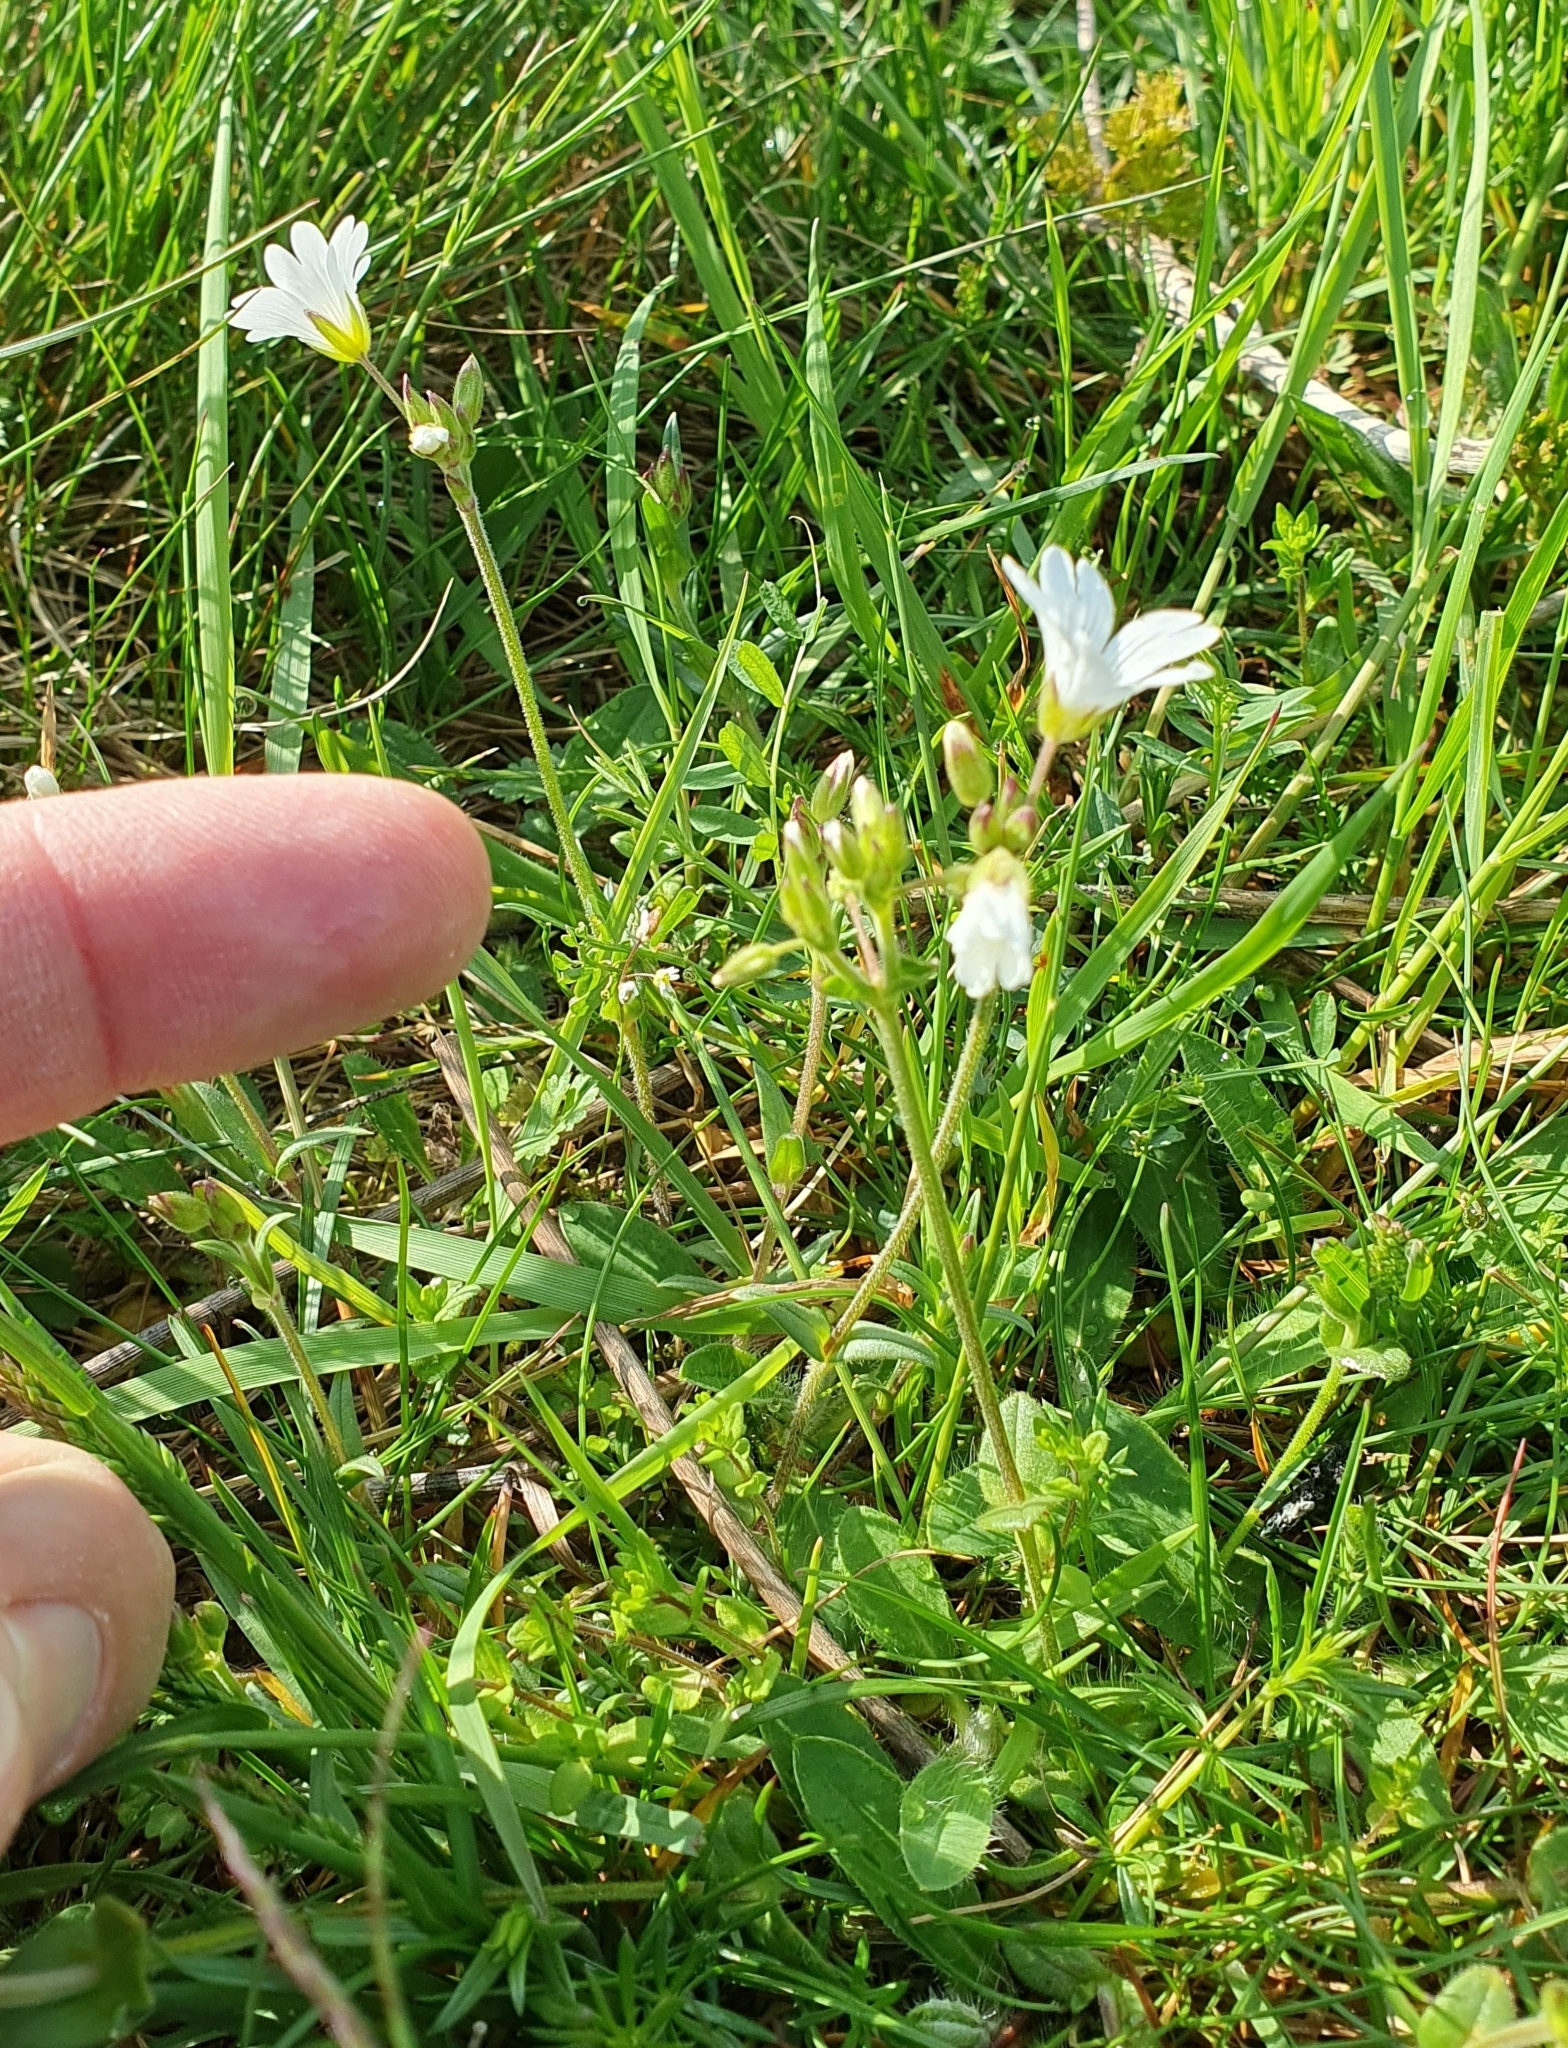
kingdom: Plantae
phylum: Tracheophyta
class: Magnoliopsida
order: Caryophyllales
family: Caryophyllaceae
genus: Cerastium
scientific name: Cerastium arvense
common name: Field mouse-ear
